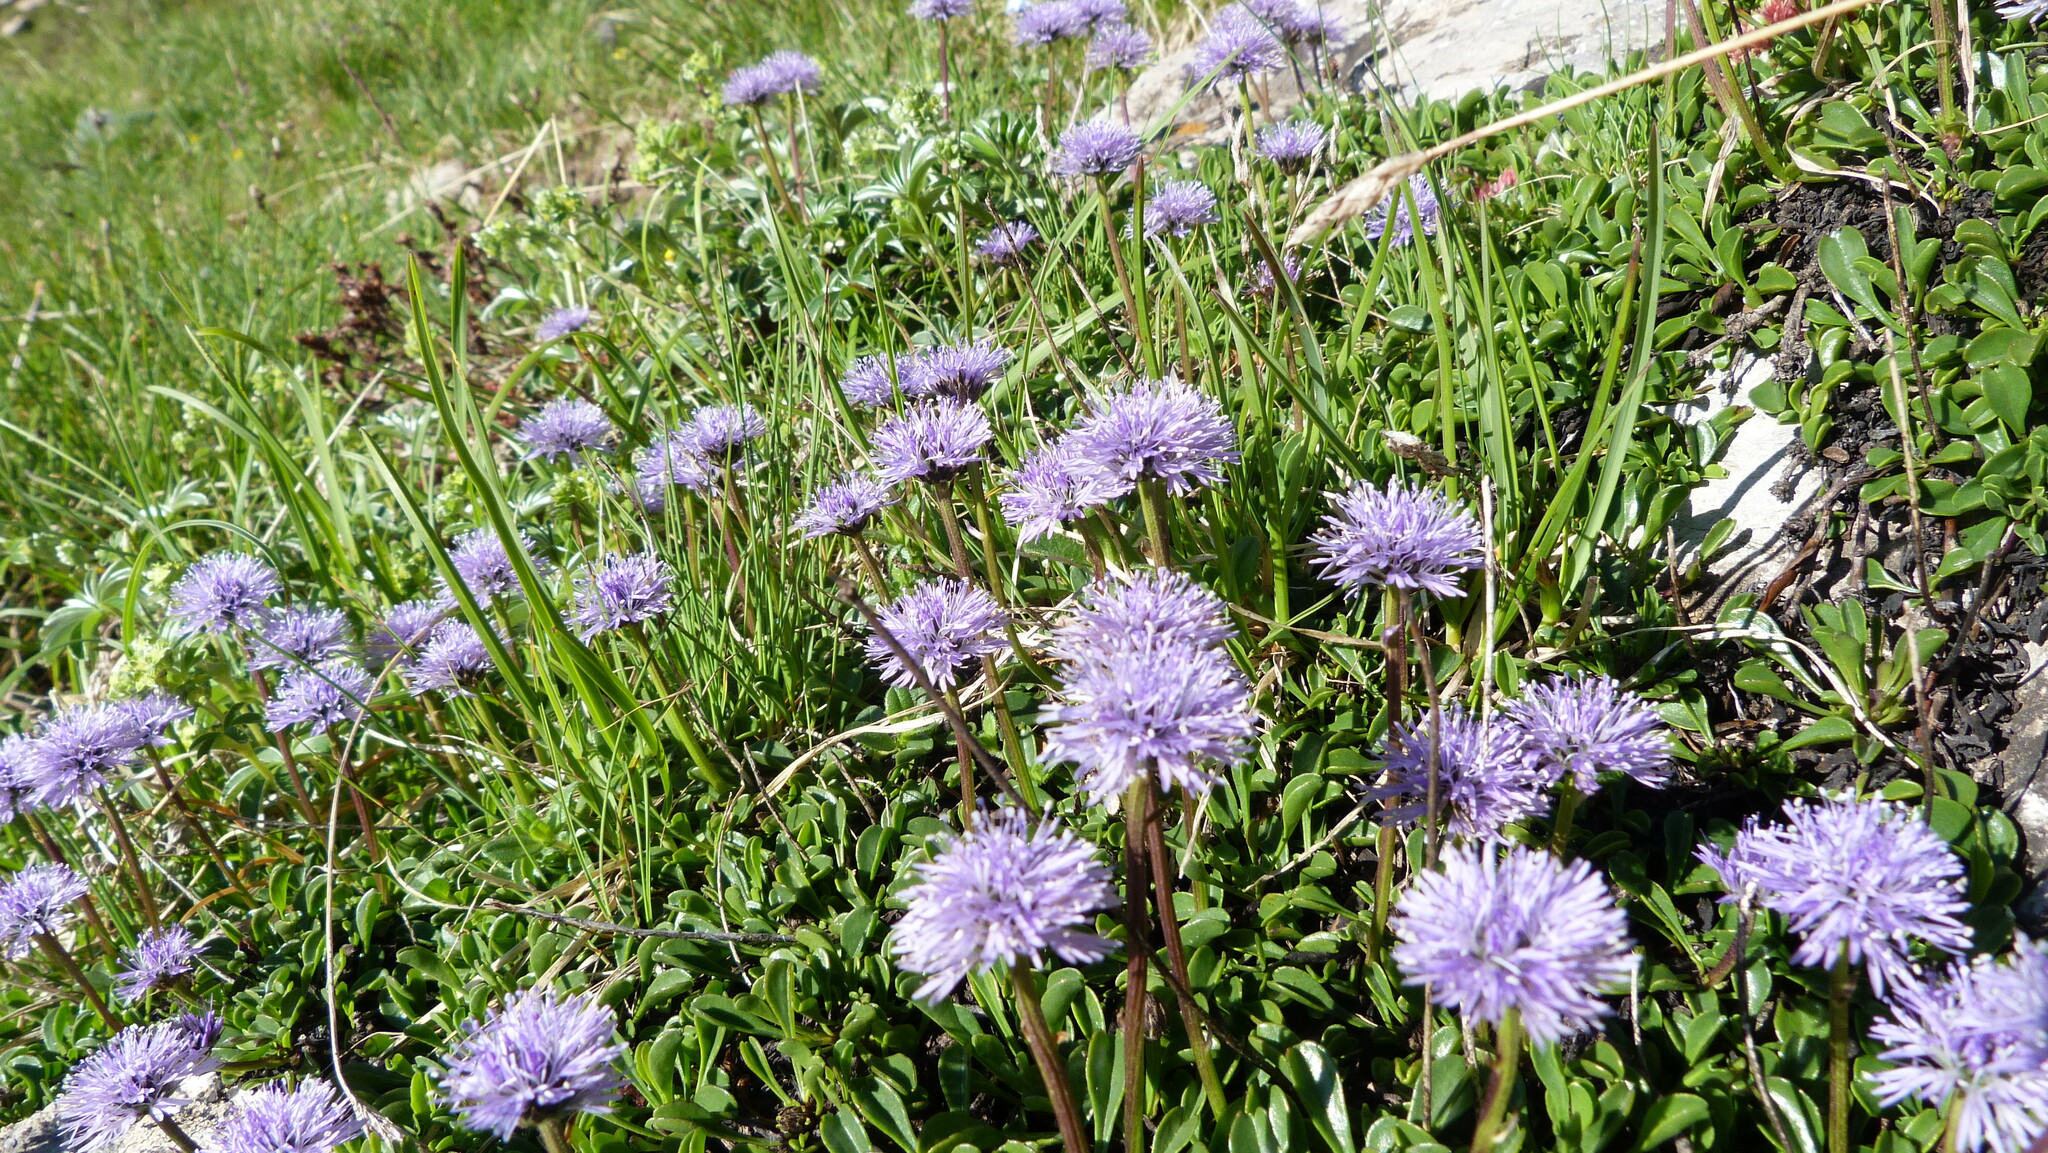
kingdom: Plantae
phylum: Tracheophyta
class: Magnoliopsida
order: Lamiales
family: Plantaginaceae
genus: Globularia
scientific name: Globularia cordifolia
